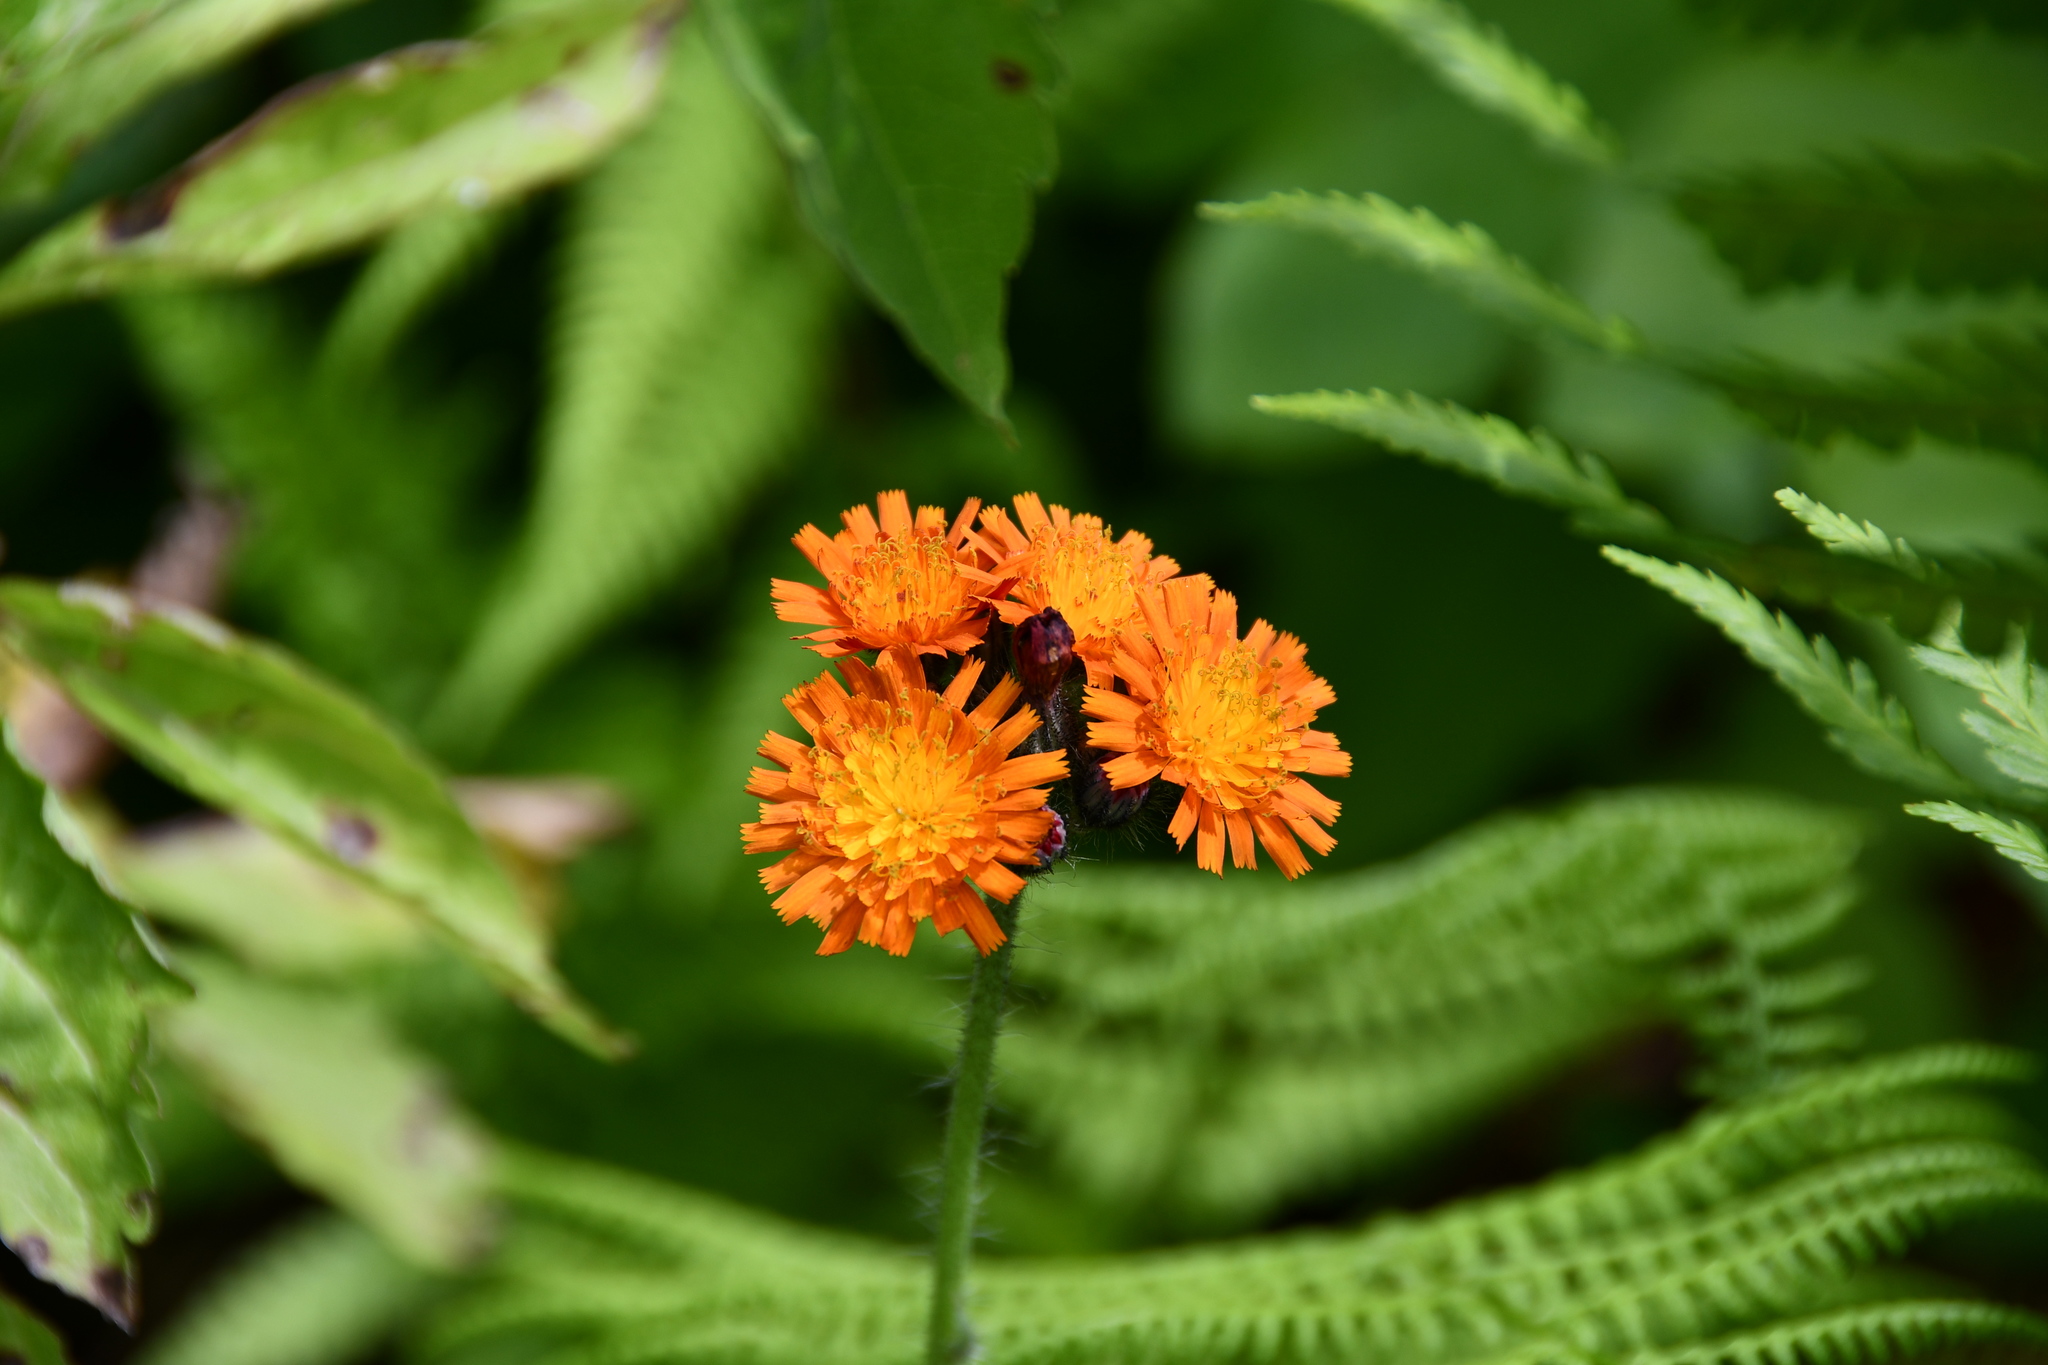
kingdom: Plantae
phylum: Tracheophyta
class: Magnoliopsida
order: Asterales
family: Asteraceae
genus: Pilosella
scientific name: Pilosella aurantiaca
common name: Fox-and-cubs
